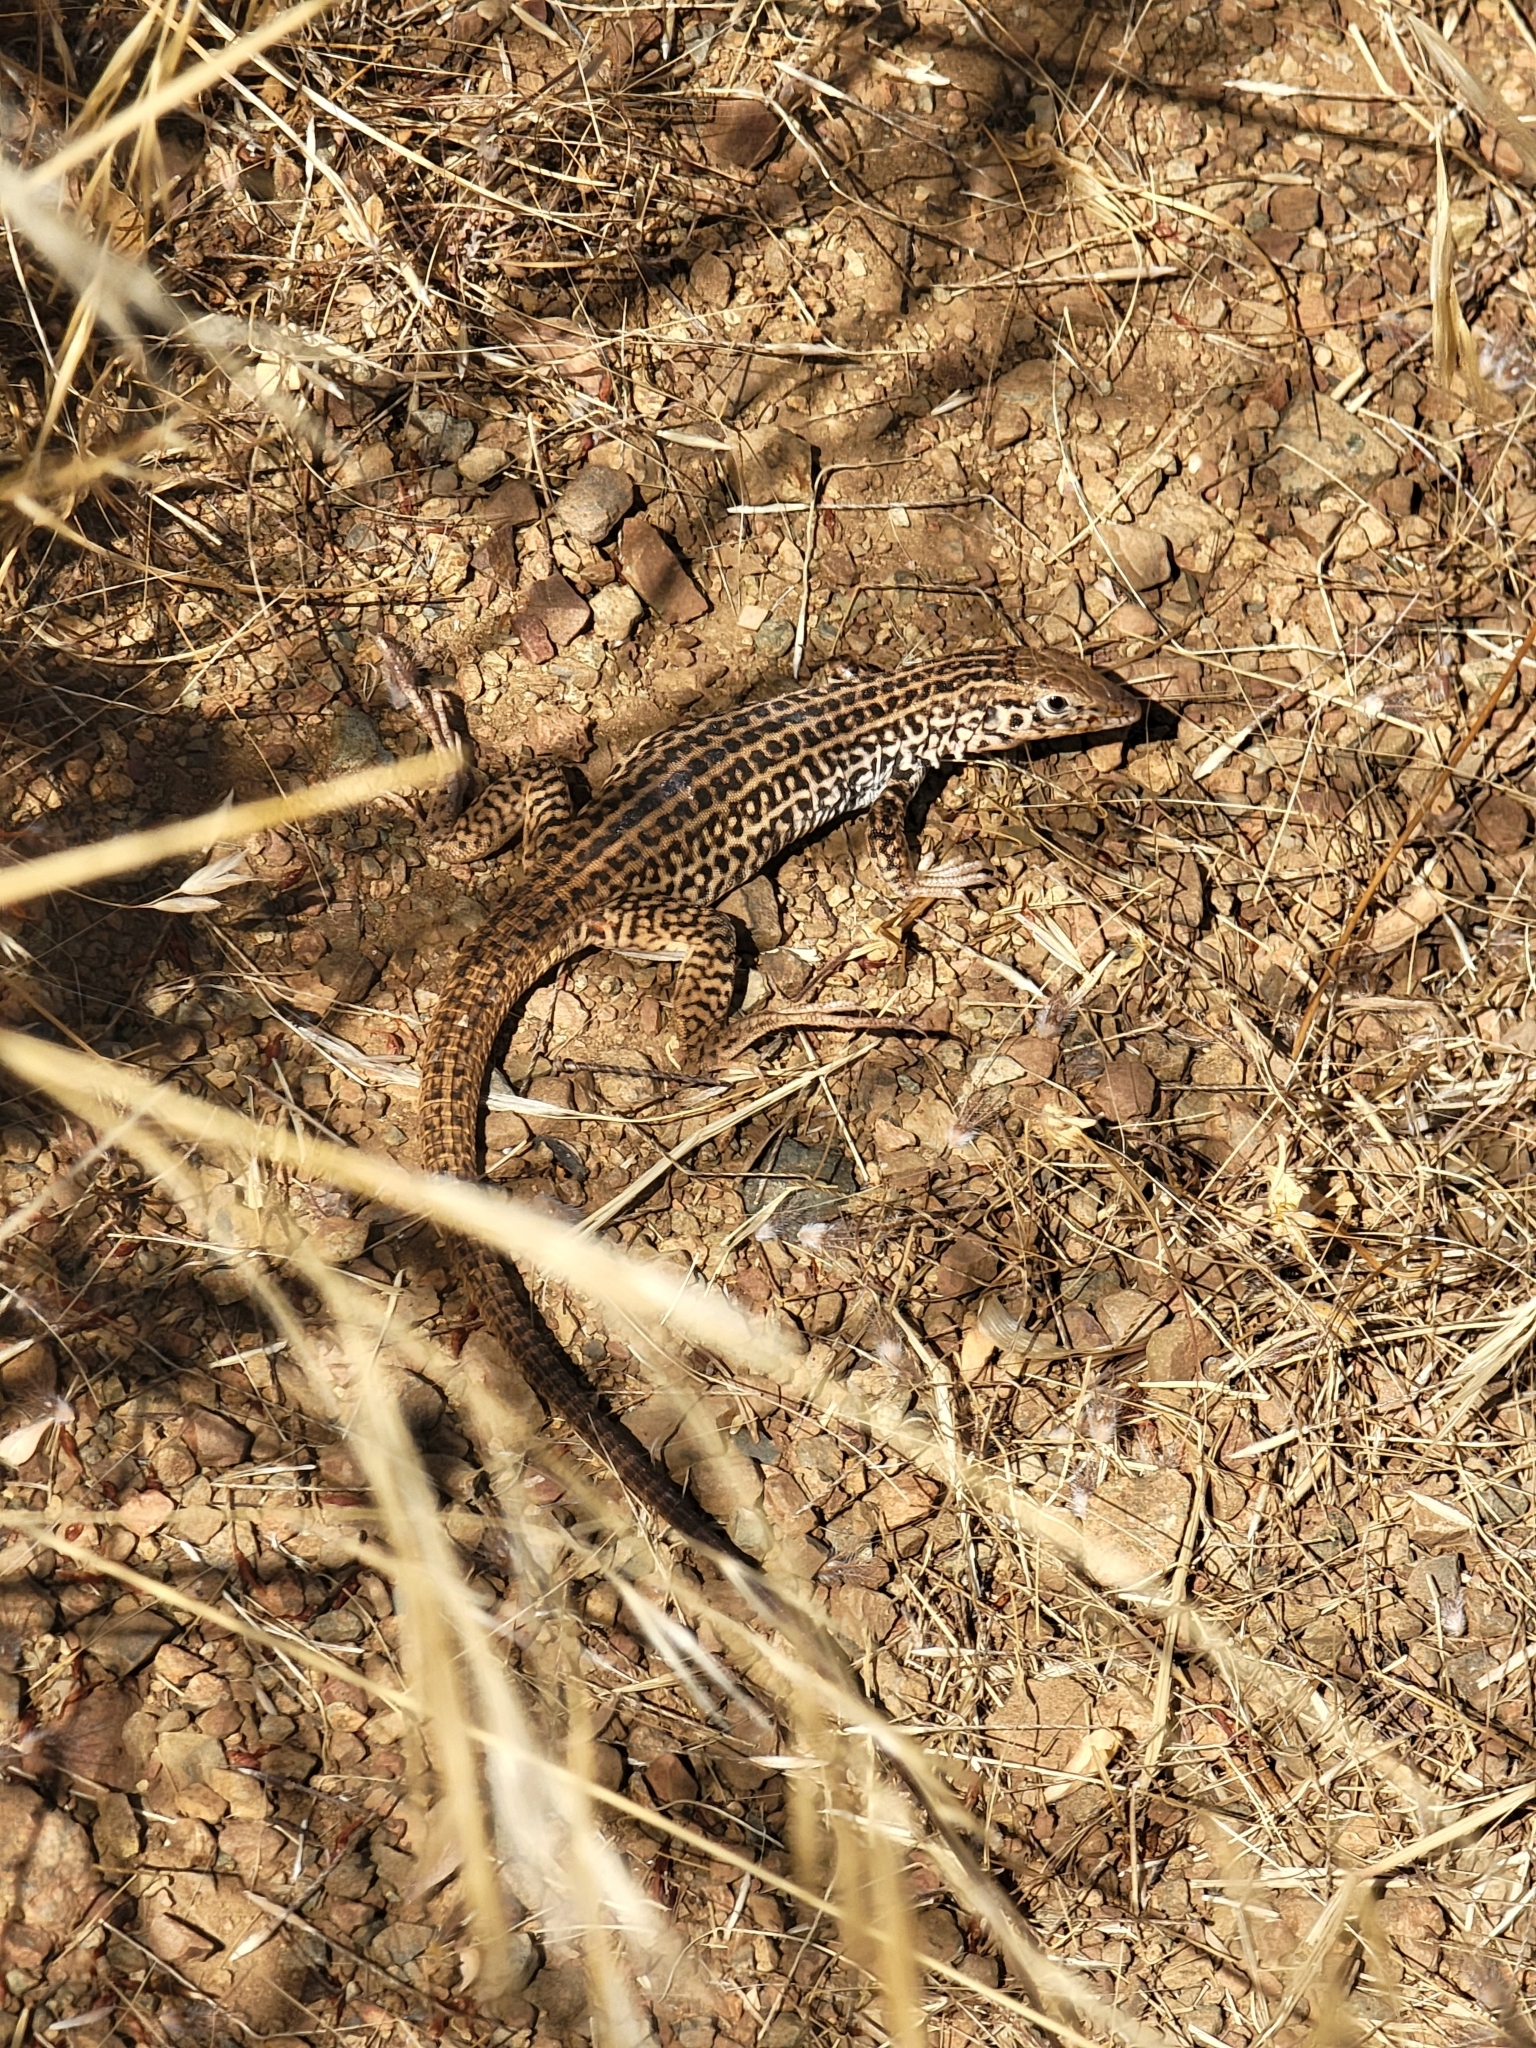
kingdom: Animalia
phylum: Chordata
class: Squamata
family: Teiidae
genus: Aspidoscelis
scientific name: Aspidoscelis tigris
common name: Tiger whiptail
